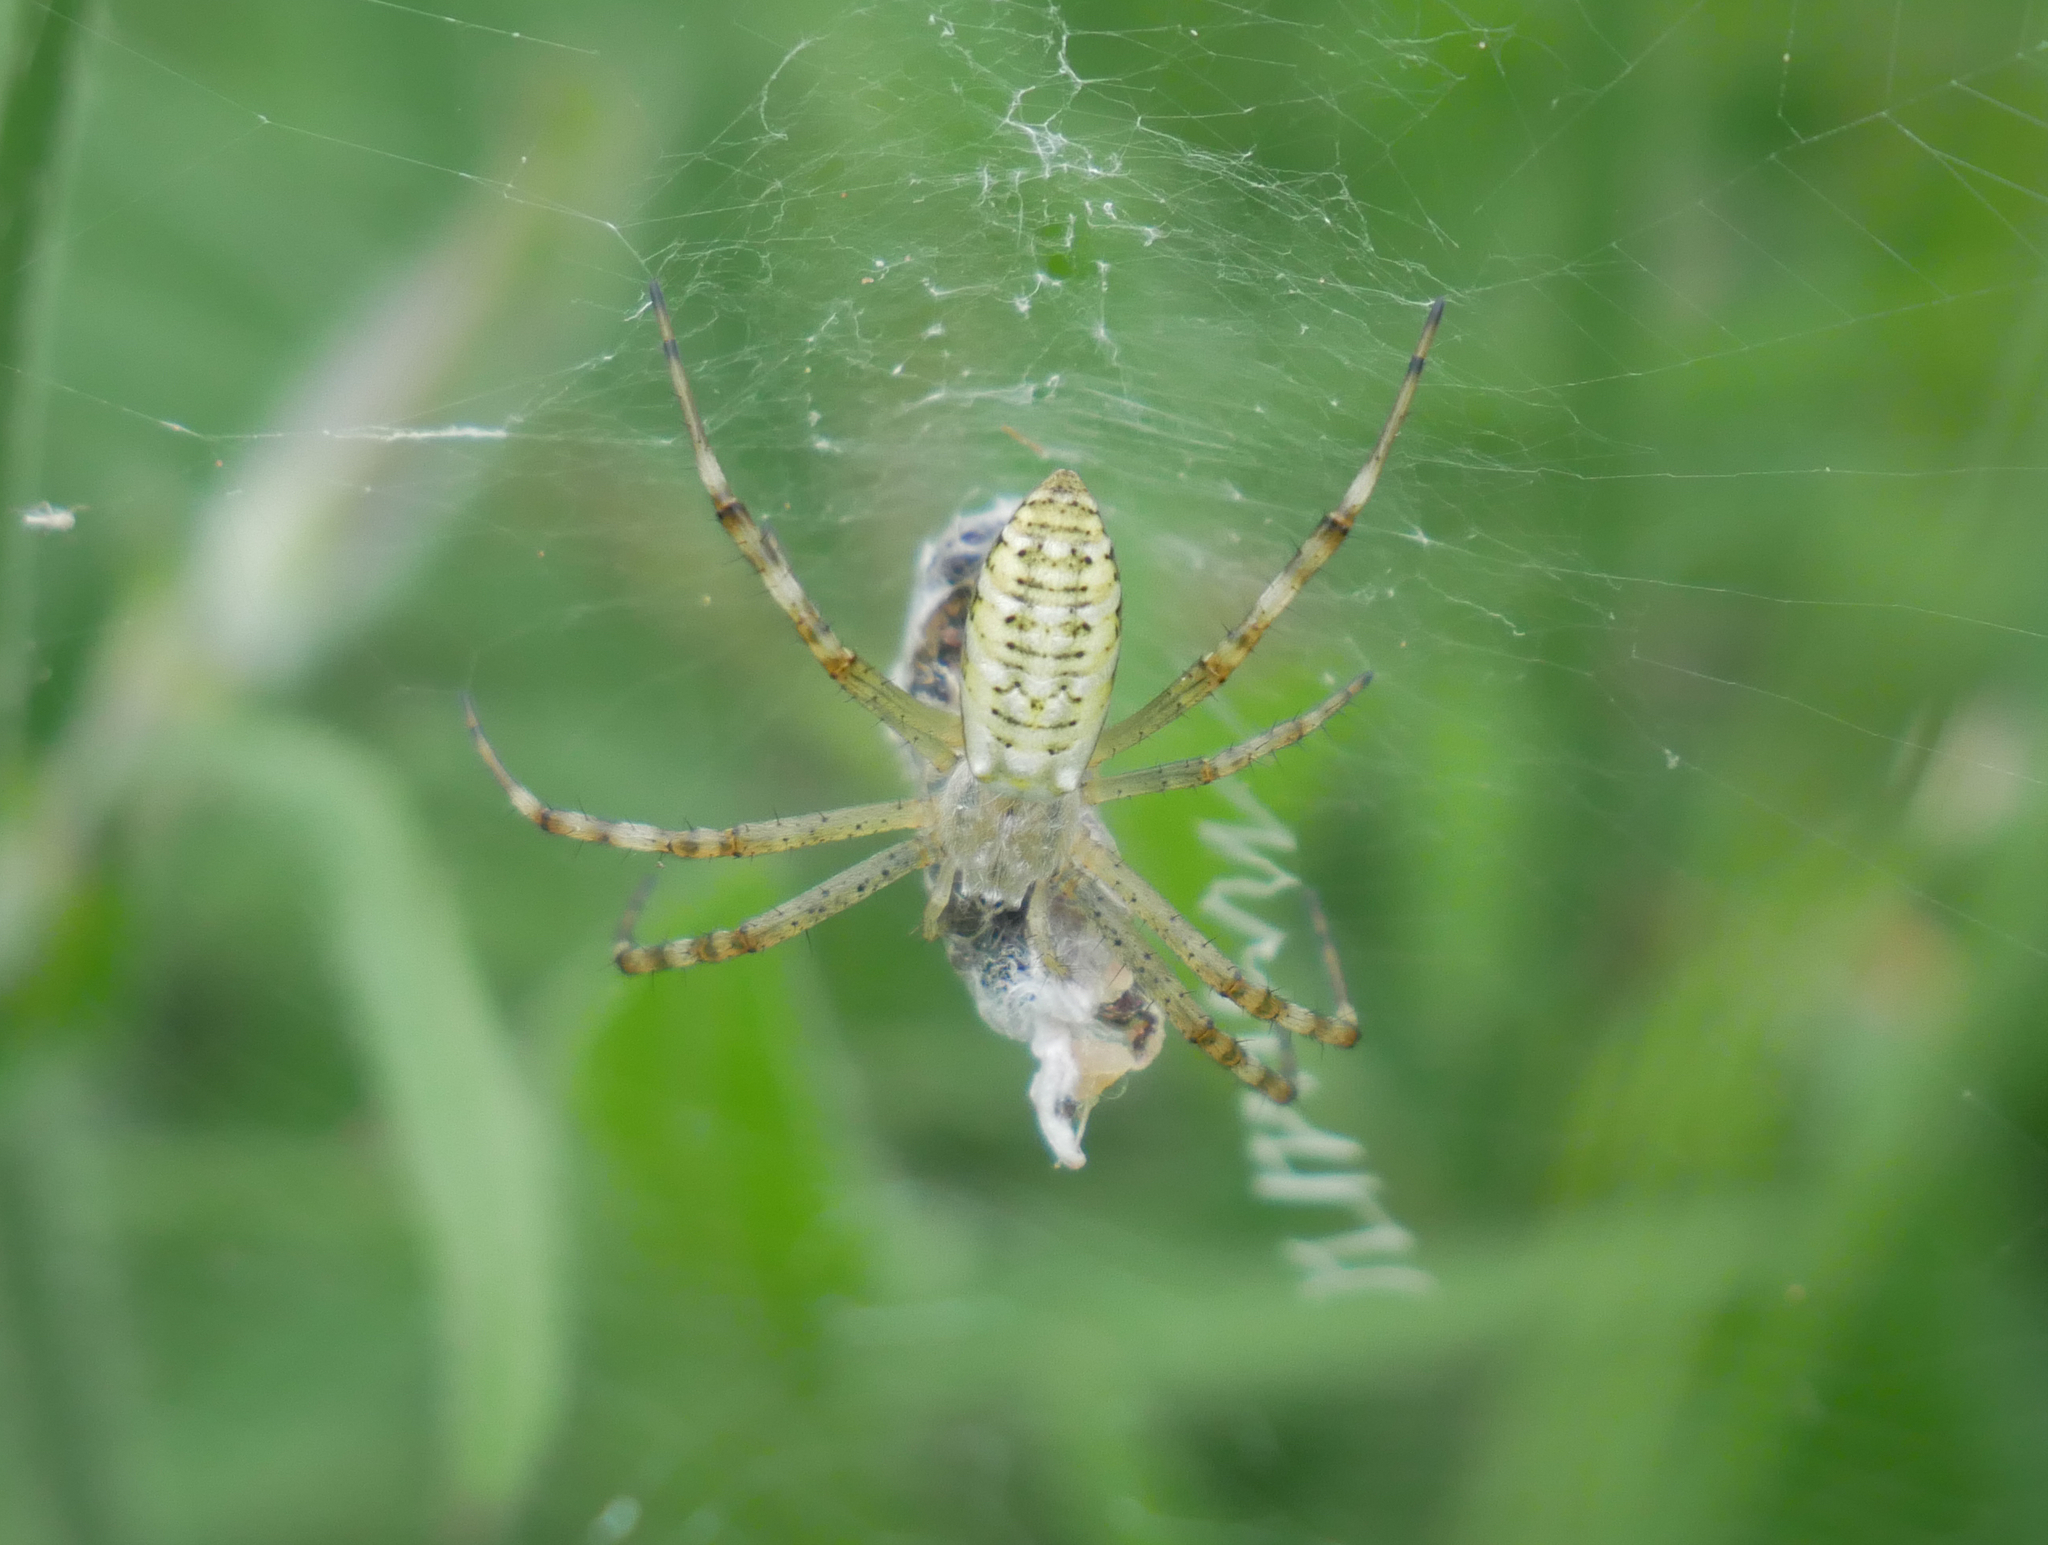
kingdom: Animalia
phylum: Arthropoda
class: Arachnida
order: Araneae
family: Araneidae
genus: Argiope
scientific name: Argiope bruennichi
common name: Wasp spider
